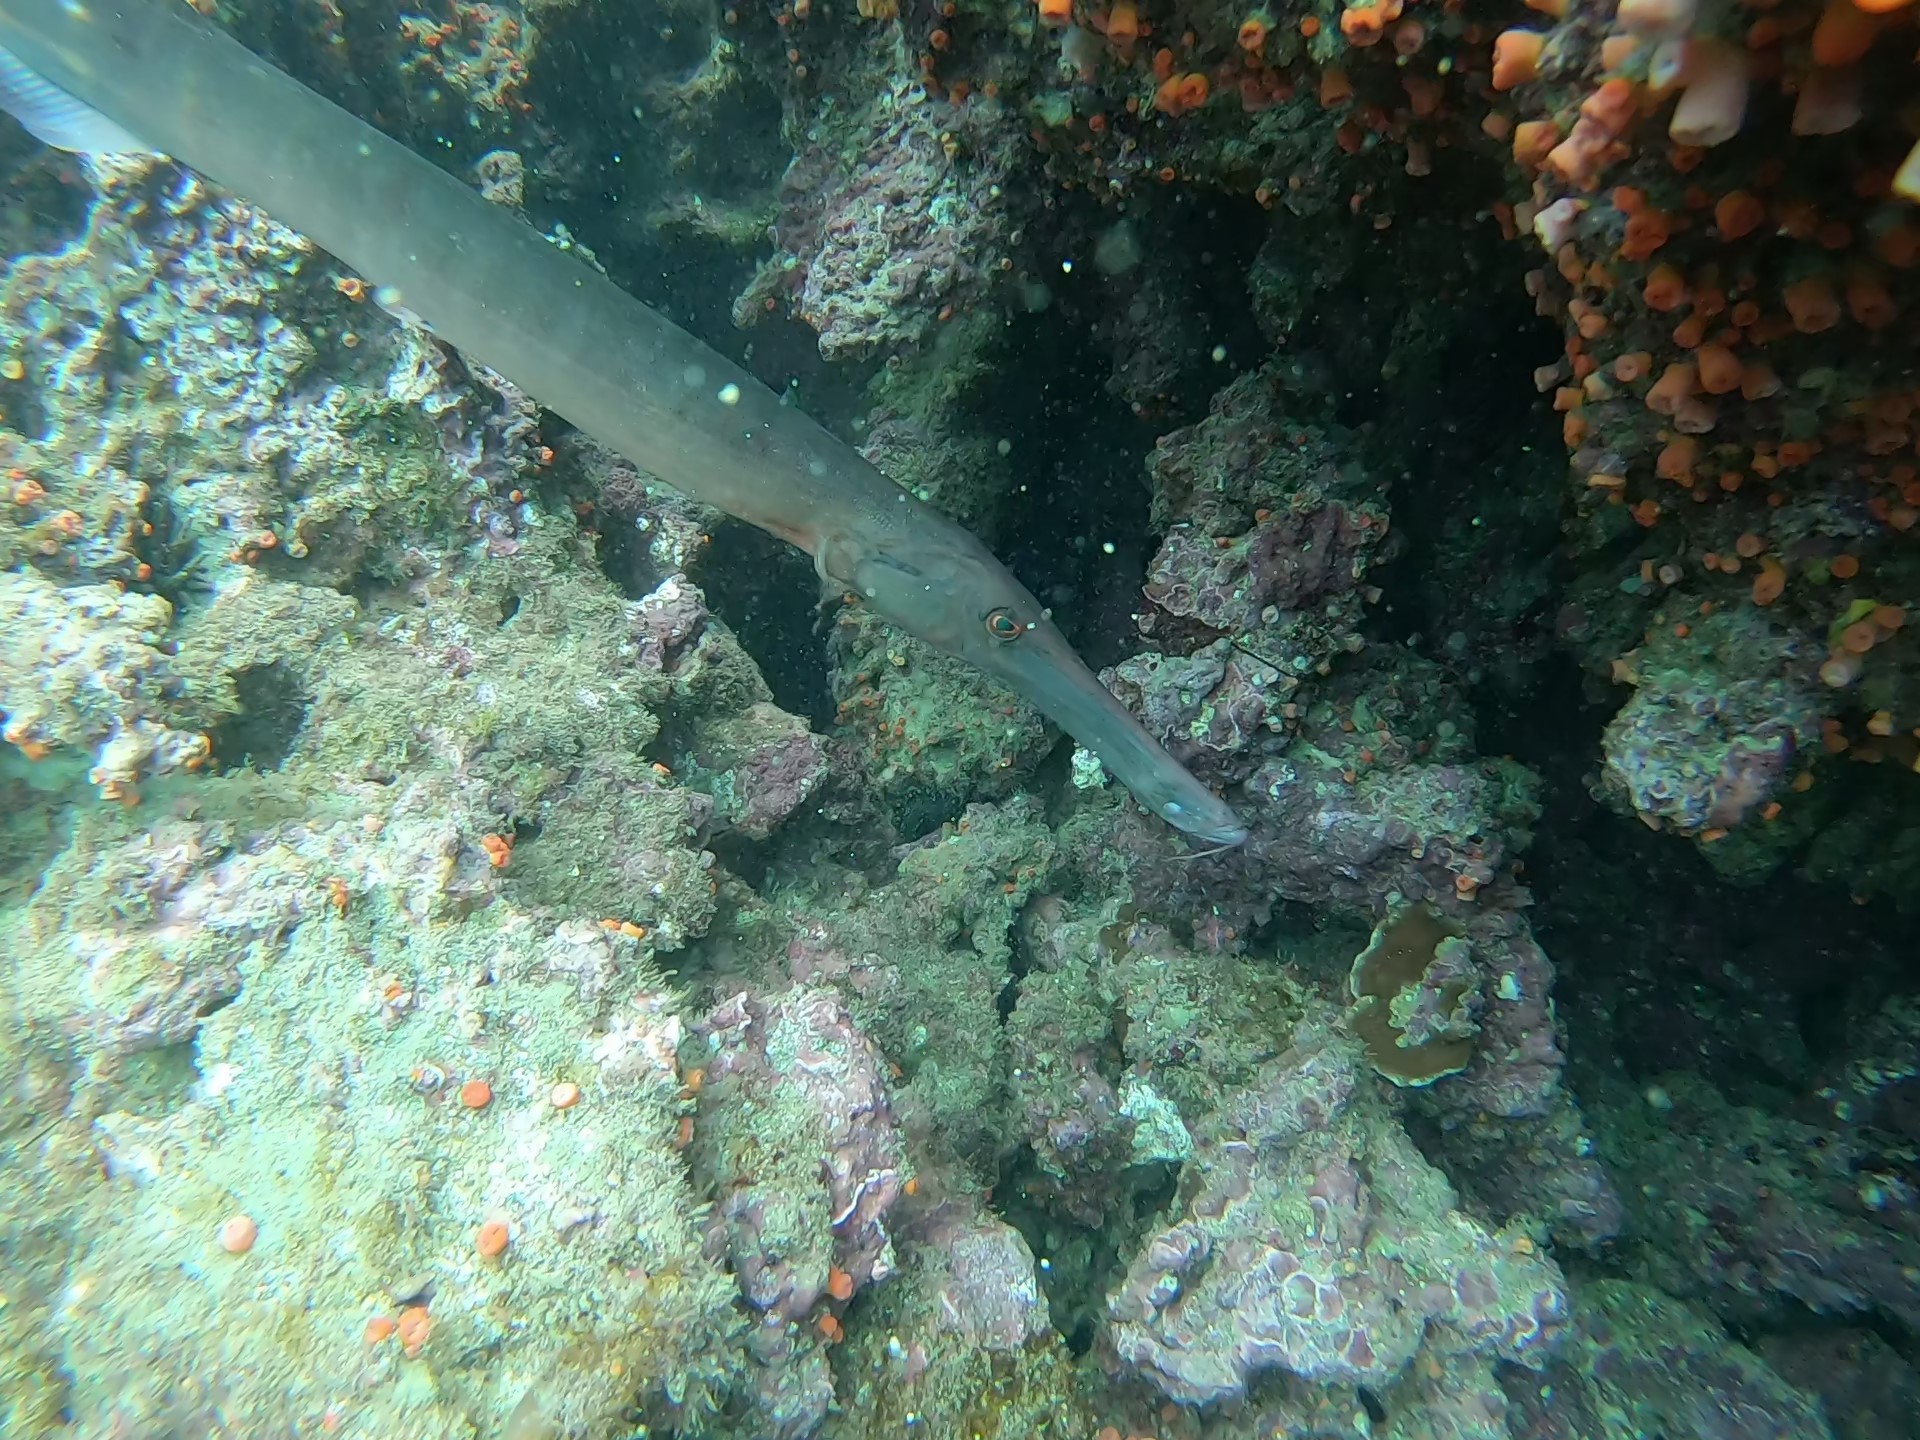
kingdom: Animalia
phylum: Chordata
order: Syngnathiformes
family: Aulostomidae
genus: Aulostomus
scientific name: Aulostomus chinensis
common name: Chinese trumpetfish
